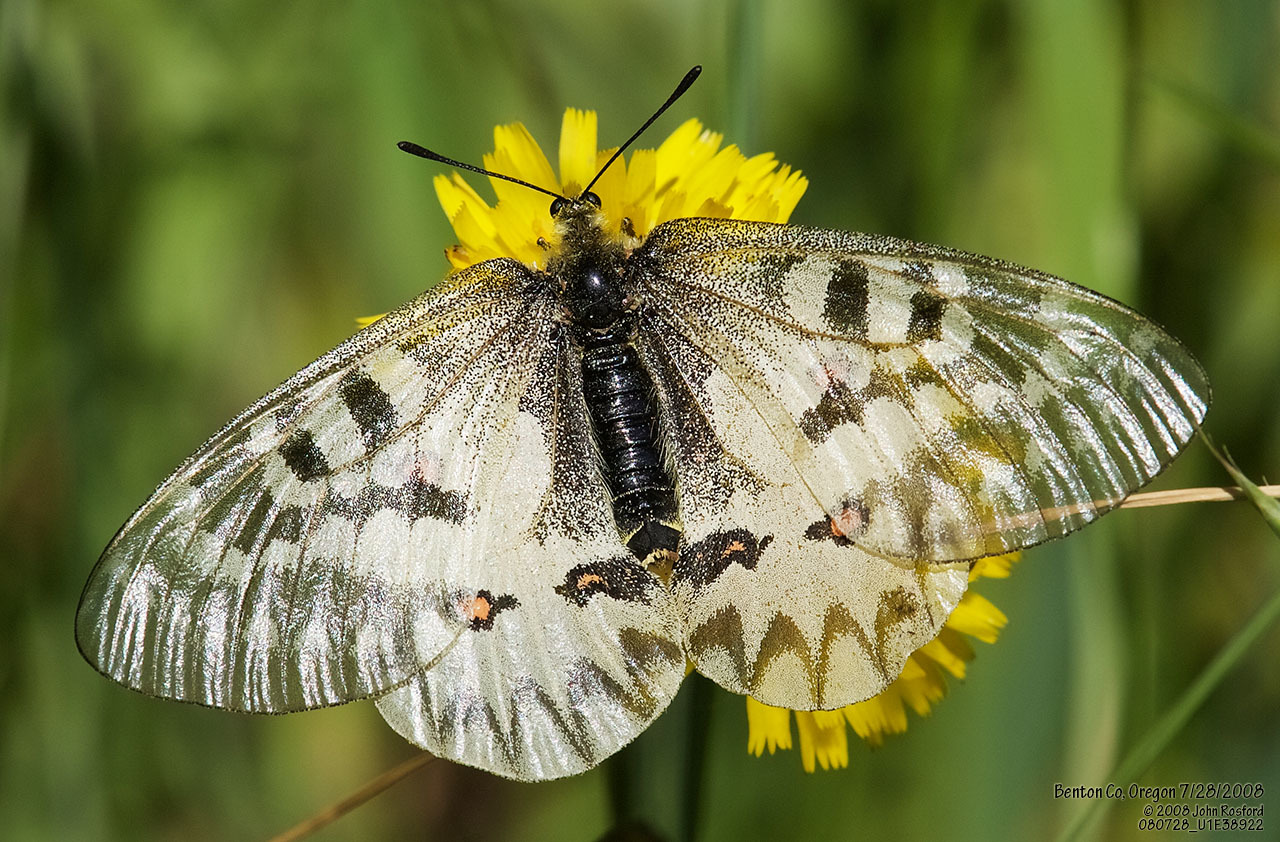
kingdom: Animalia
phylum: Arthropoda
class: Insecta
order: Lepidoptera
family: Papilionidae
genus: Parnassius
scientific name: Parnassius clodius
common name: American apollo
